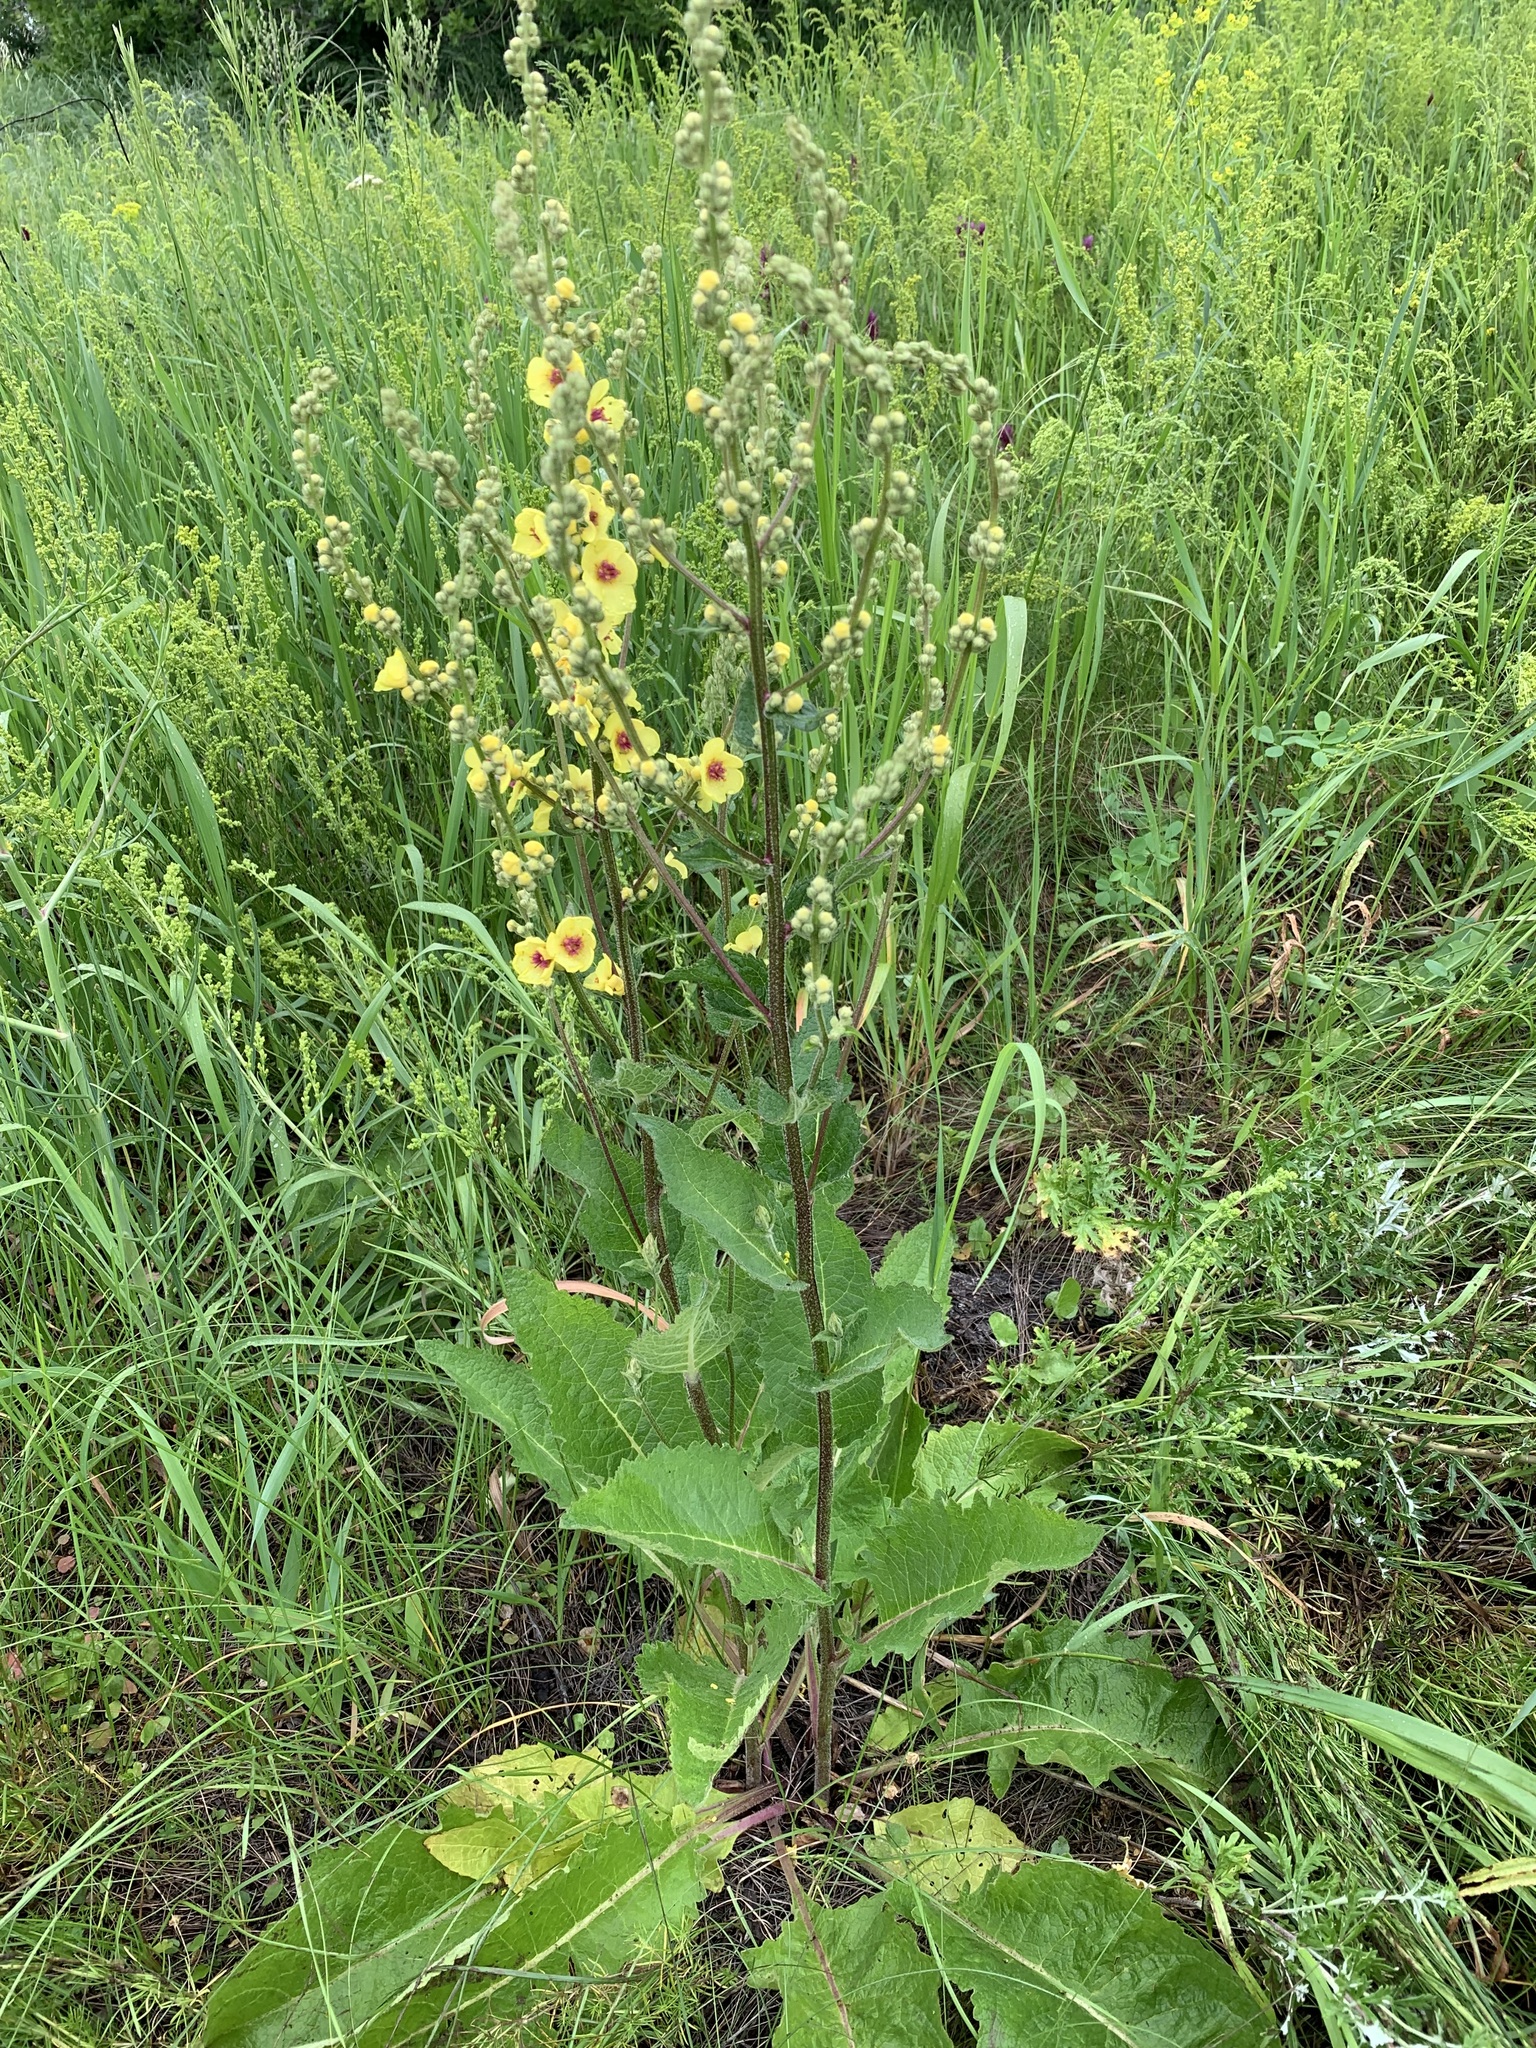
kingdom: Plantae
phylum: Tracheophyta
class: Magnoliopsida
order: Lamiales
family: Scrophulariaceae
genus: Verbascum
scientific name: Verbascum chaixii
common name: Nettle-leaved mullein
